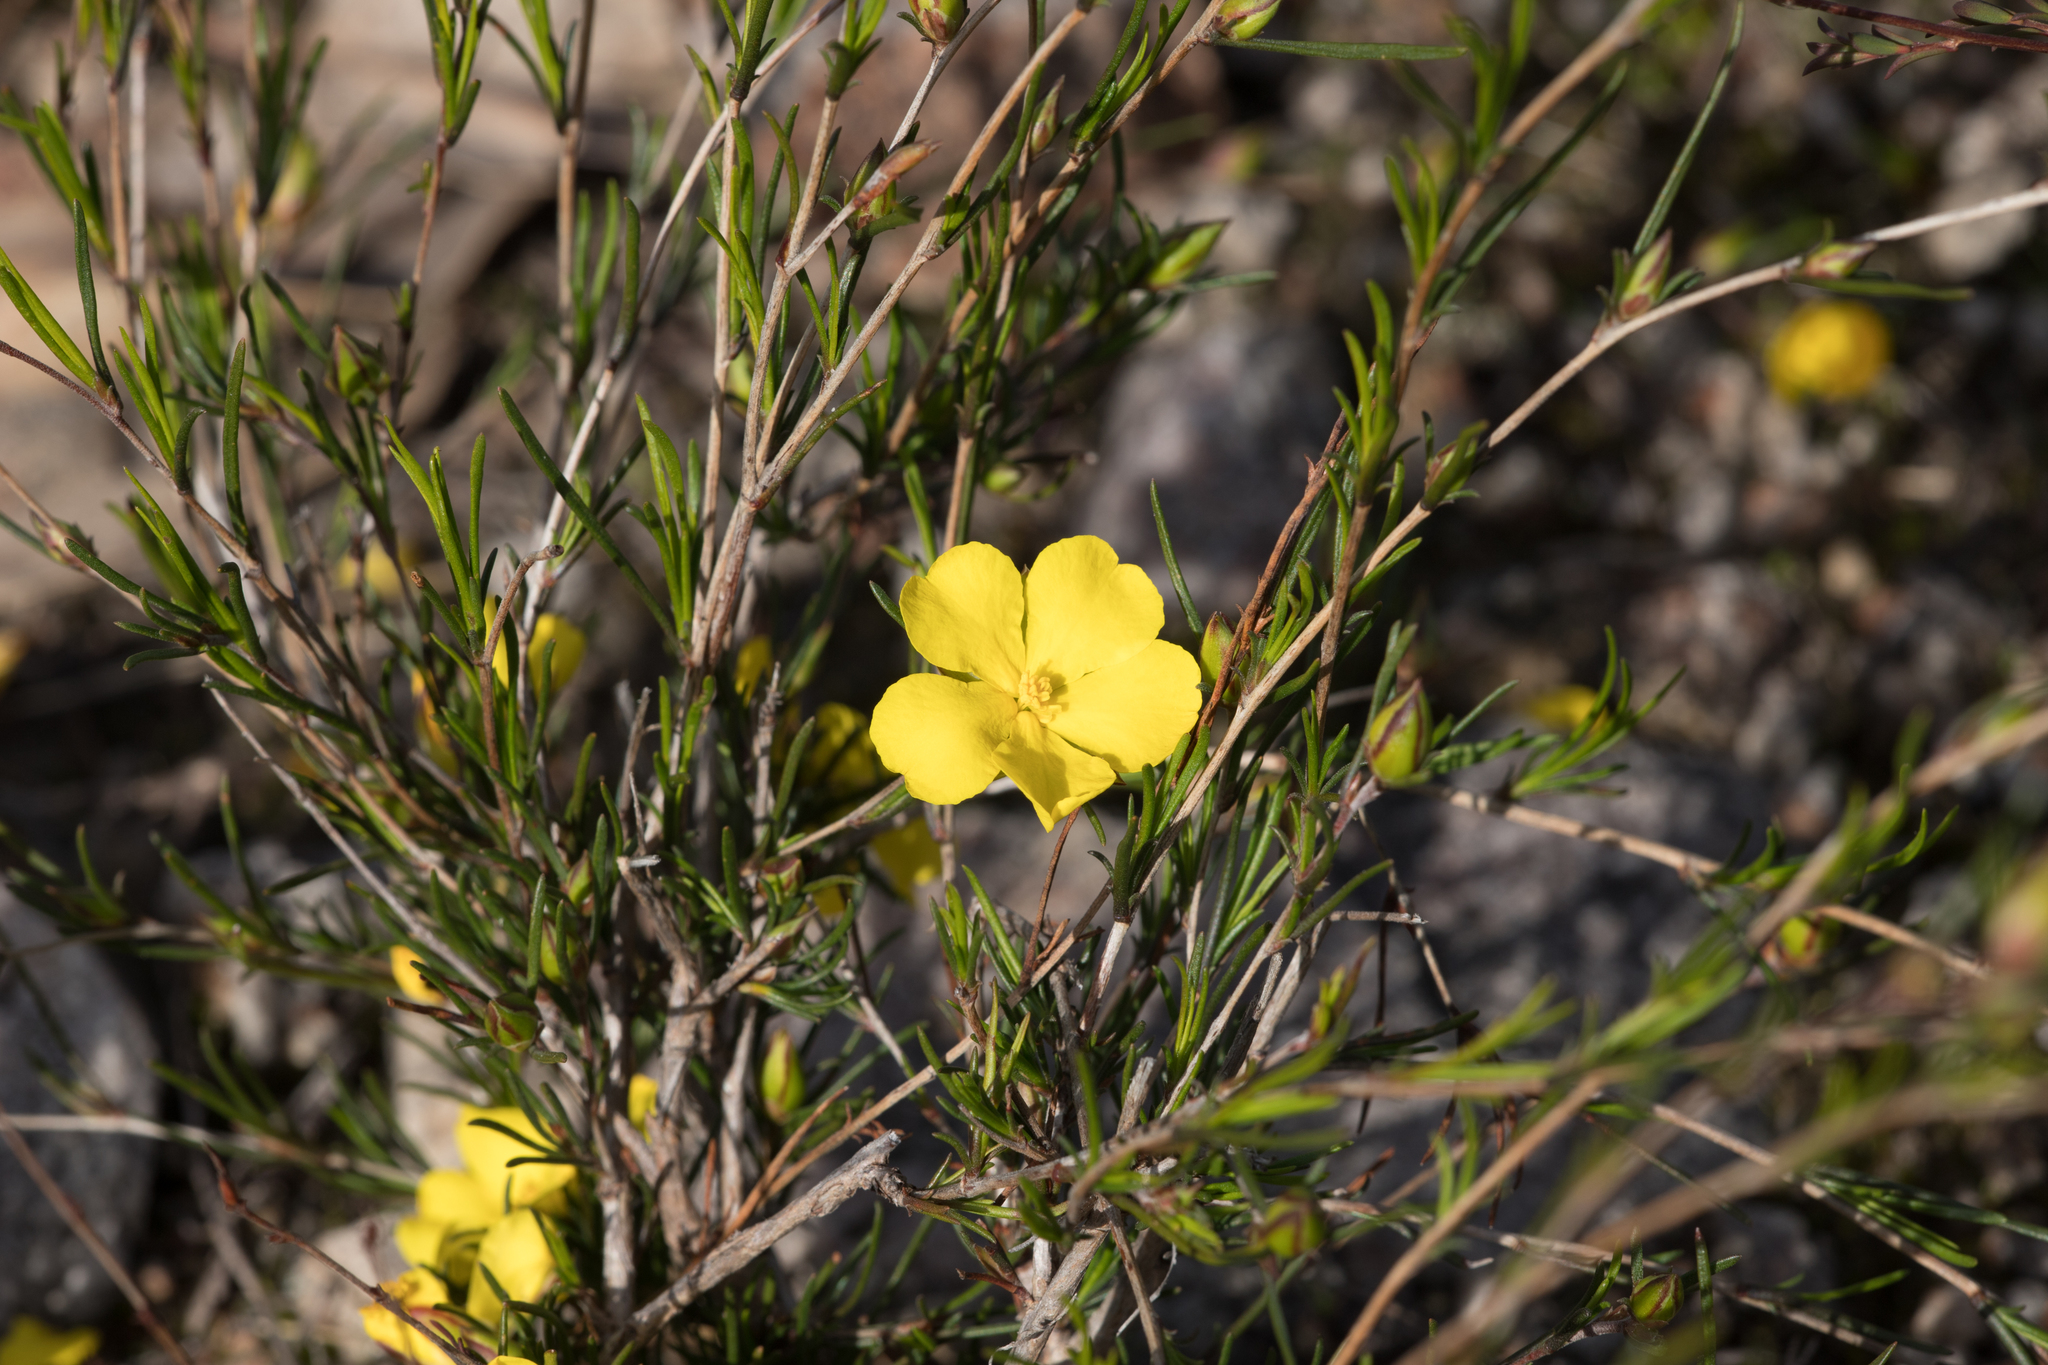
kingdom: Plantae
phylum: Tracheophyta
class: Magnoliopsida
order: Dilleniales
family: Dilleniaceae
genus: Hibbertia
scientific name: Hibbertia virgata
